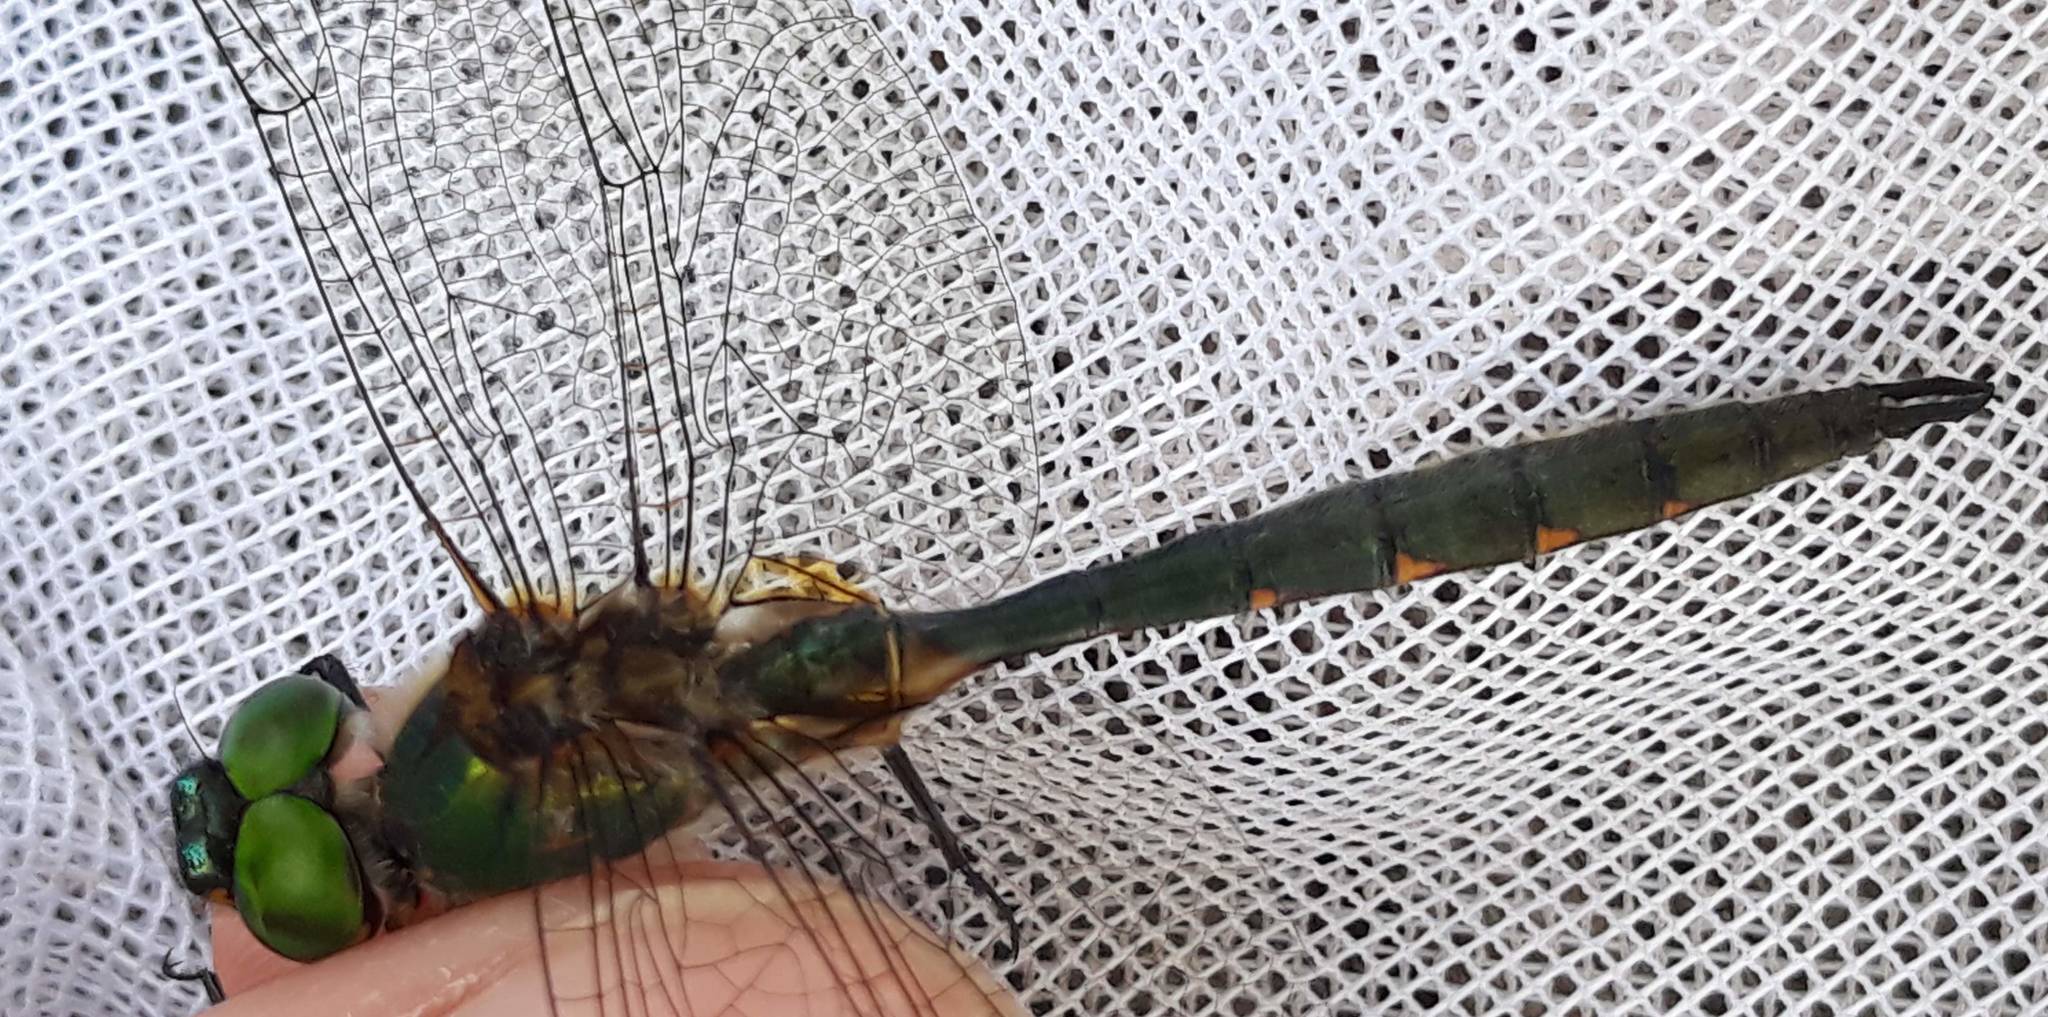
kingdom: Animalia
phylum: Arthropoda
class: Insecta
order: Odonata
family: Corduliidae
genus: Somatochlora
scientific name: Somatochlora flavomaculata
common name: Yellow-spotted emerald
